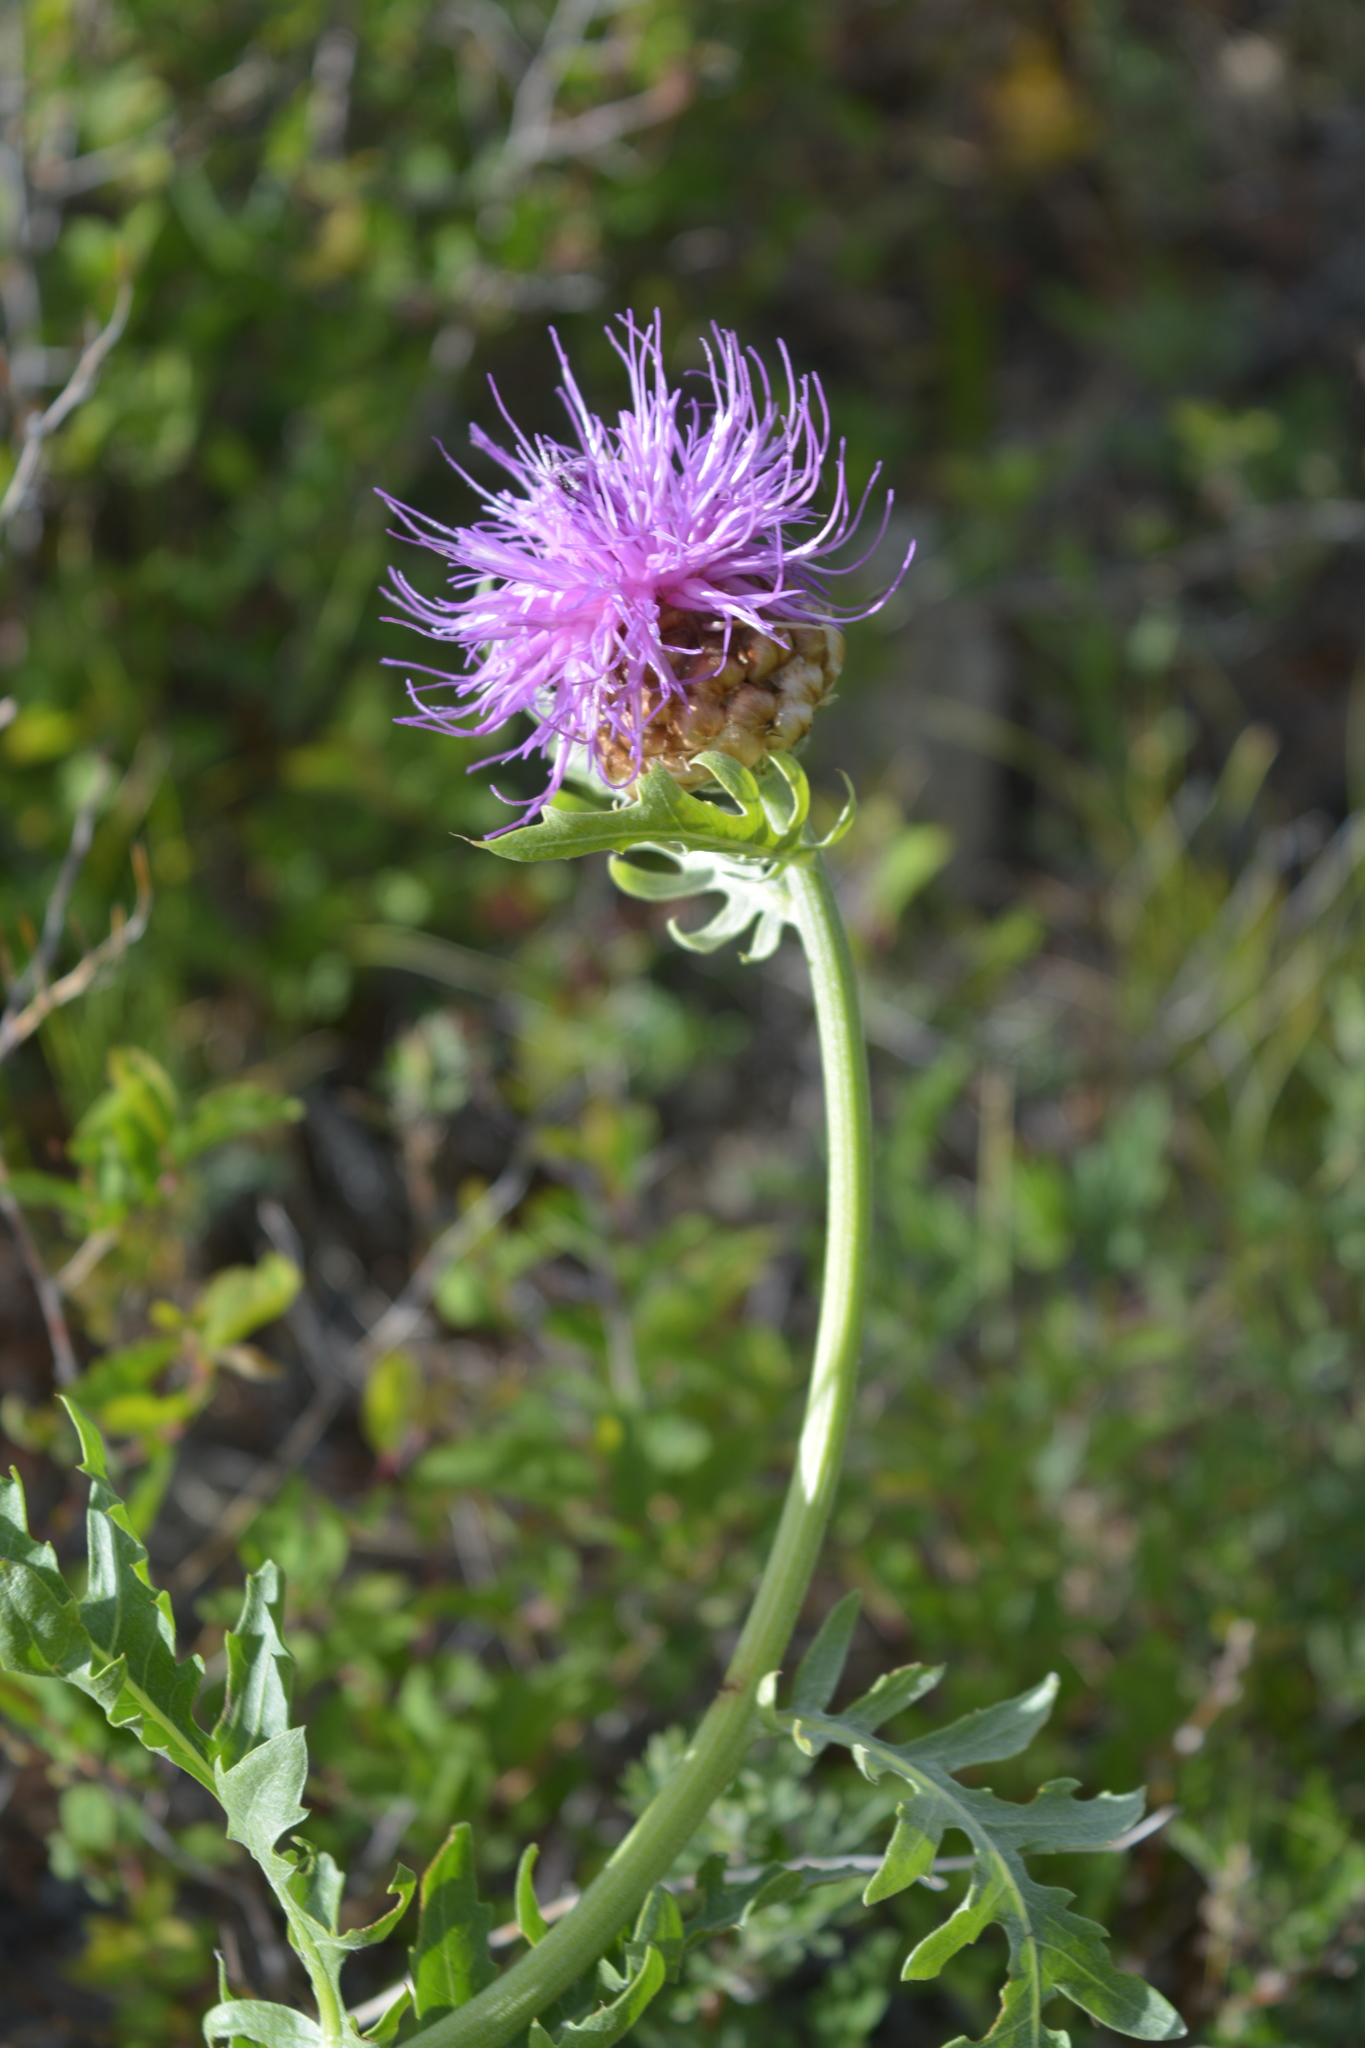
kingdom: Plantae
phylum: Tracheophyta
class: Magnoliopsida
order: Asterales
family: Asteraceae
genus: Leuzea
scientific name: Leuzea uniflora
